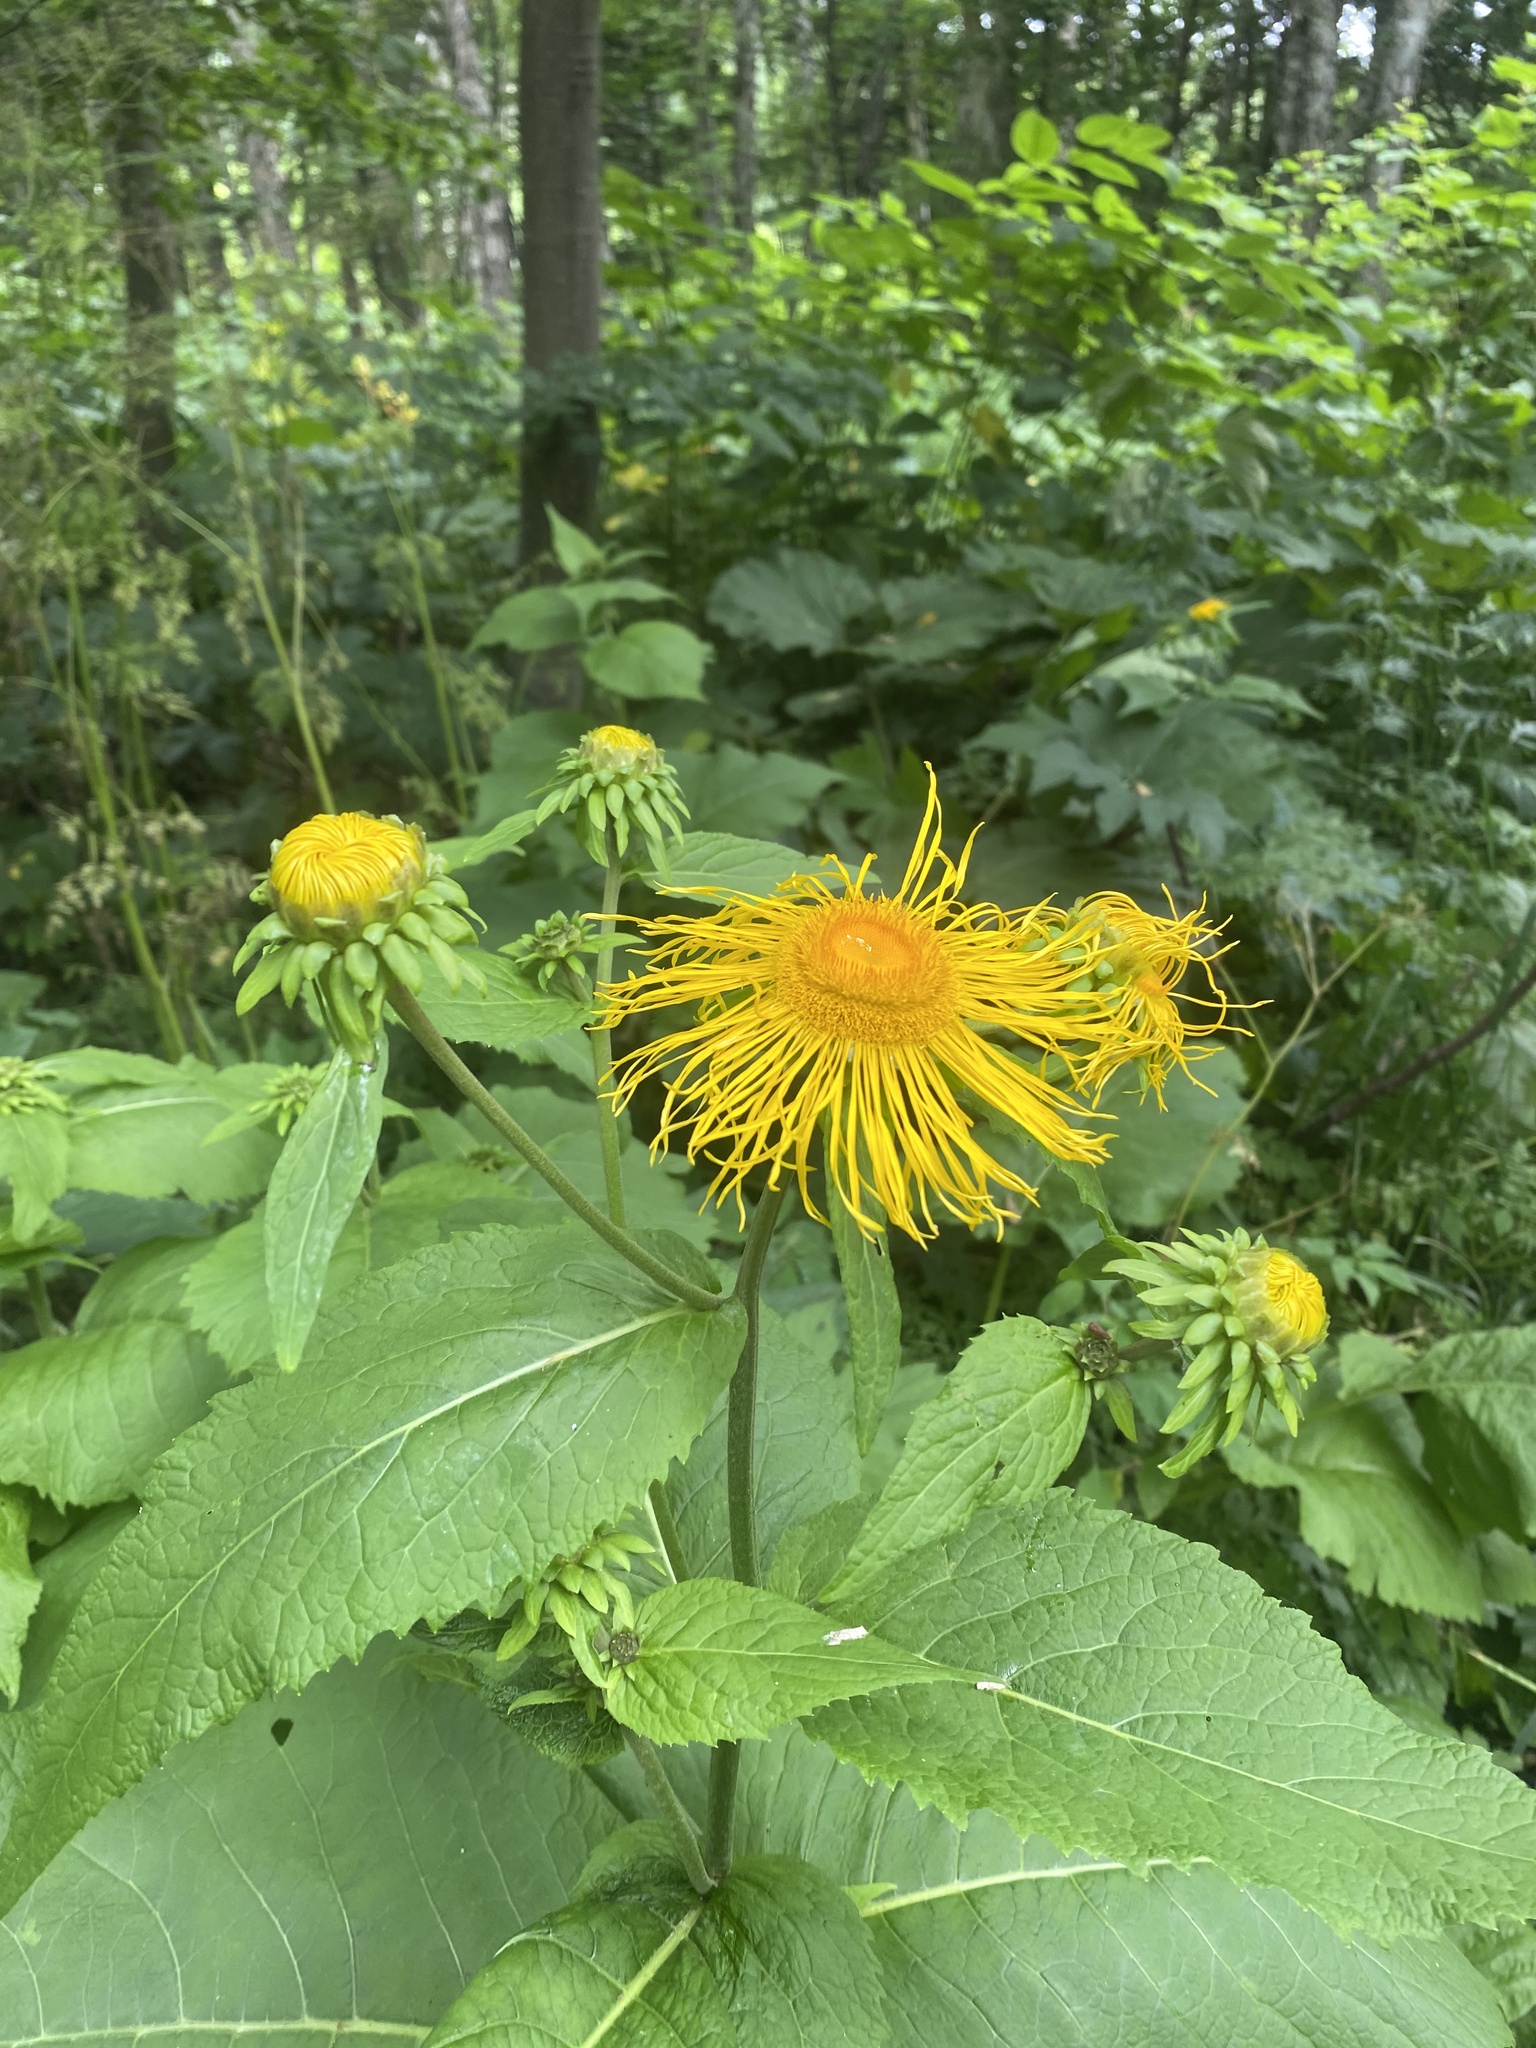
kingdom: Plantae
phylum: Tracheophyta
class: Magnoliopsida
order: Asterales
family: Asteraceae
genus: Telekia
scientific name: Telekia speciosa
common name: Yellow oxeye
